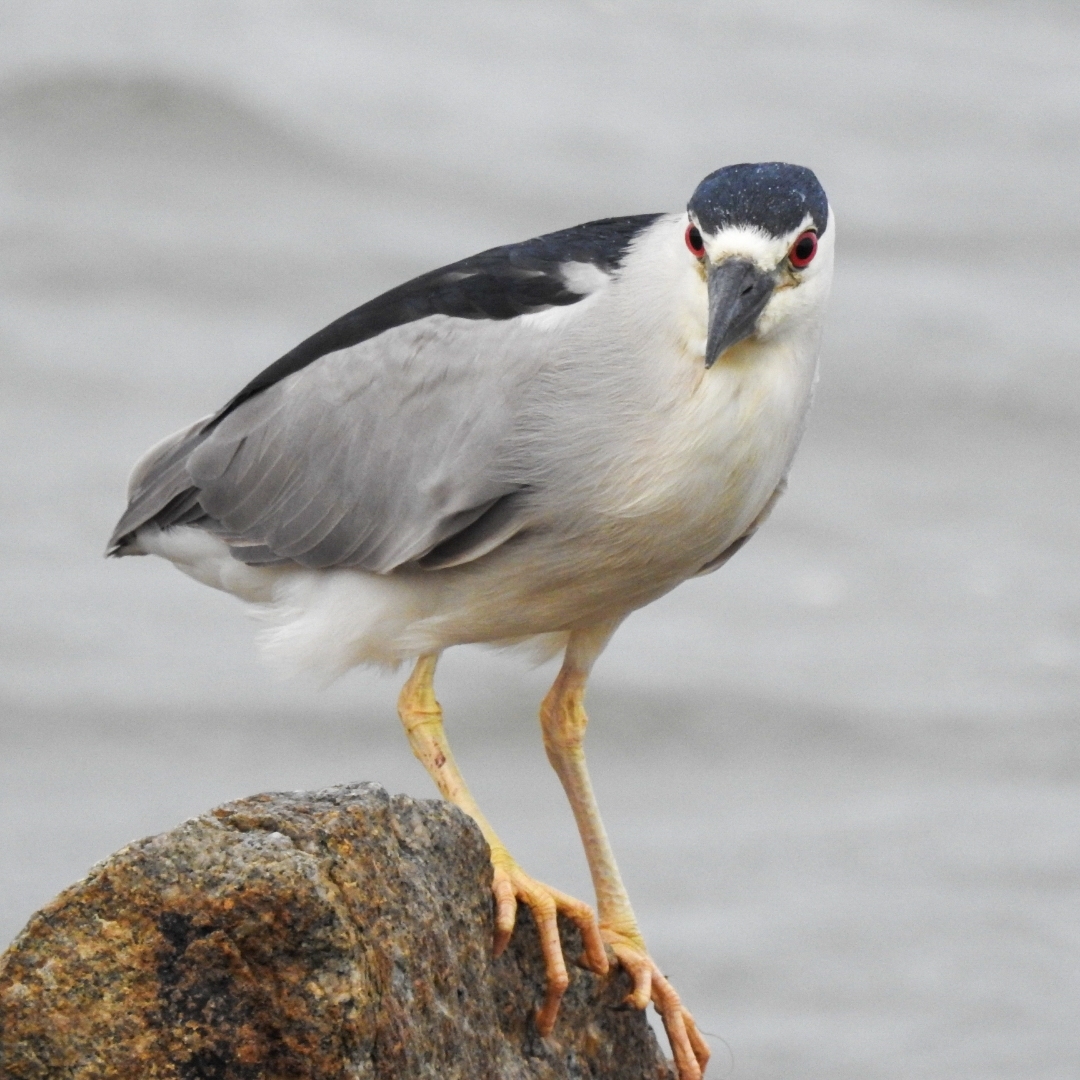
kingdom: Animalia
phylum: Chordata
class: Aves
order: Pelecaniformes
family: Ardeidae
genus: Nycticorax
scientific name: Nycticorax nycticorax
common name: Black-crowned night heron
